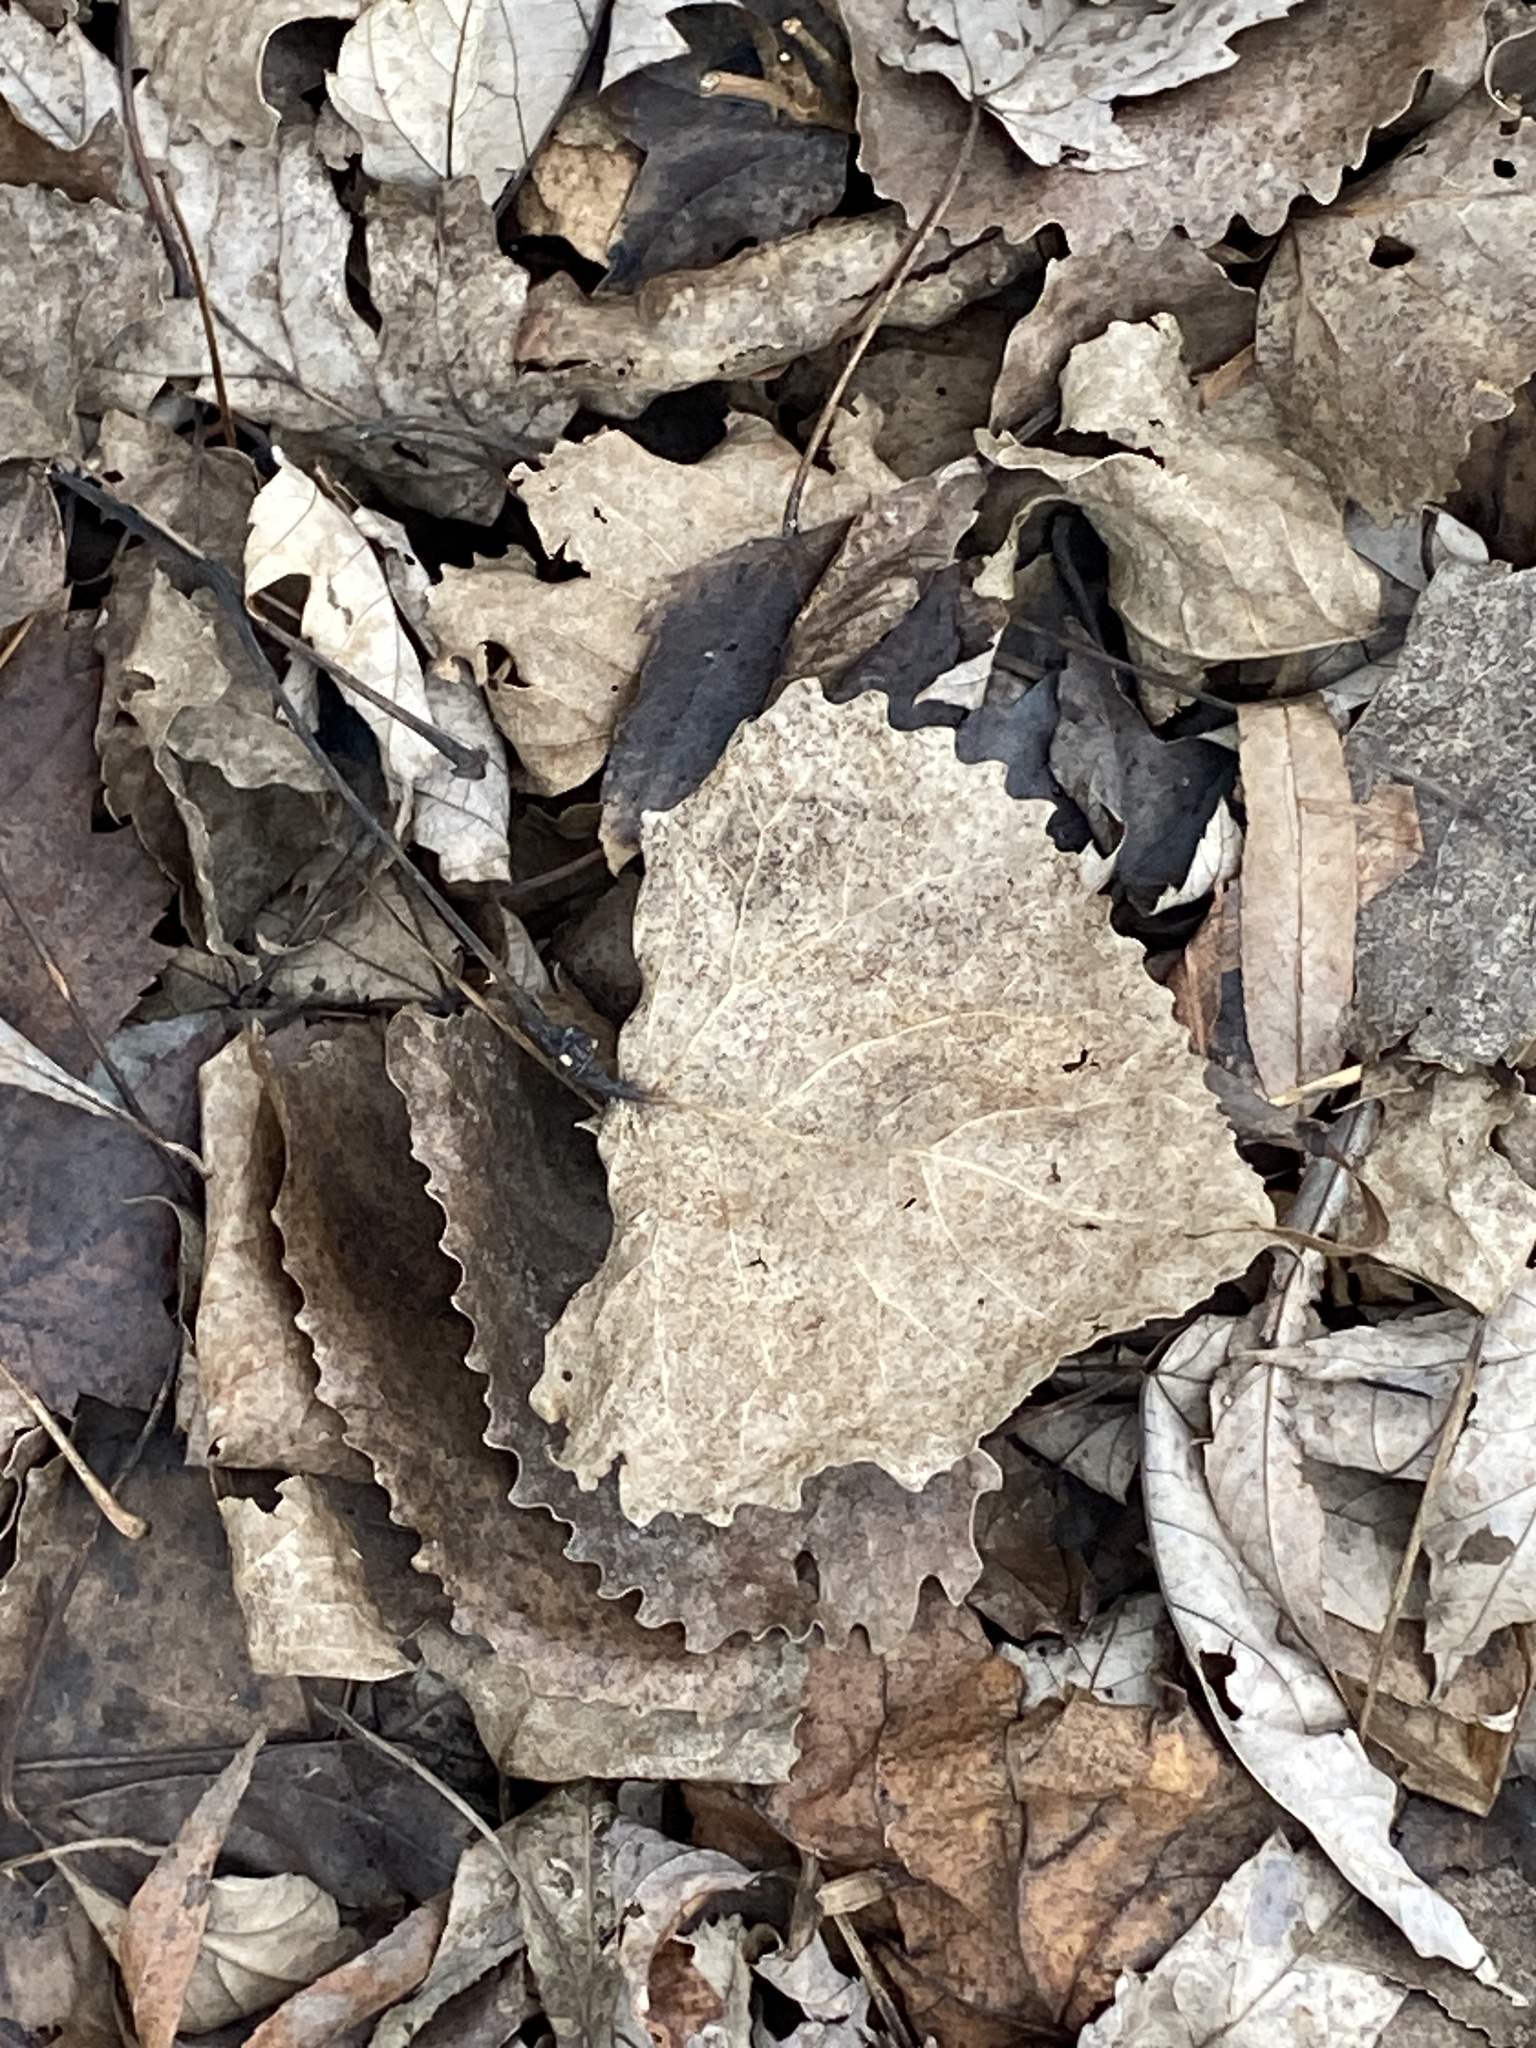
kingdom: Plantae
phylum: Tracheophyta
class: Magnoliopsida
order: Malpighiales
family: Salicaceae
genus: Populus
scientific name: Populus deltoides
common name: Eastern cottonwood
